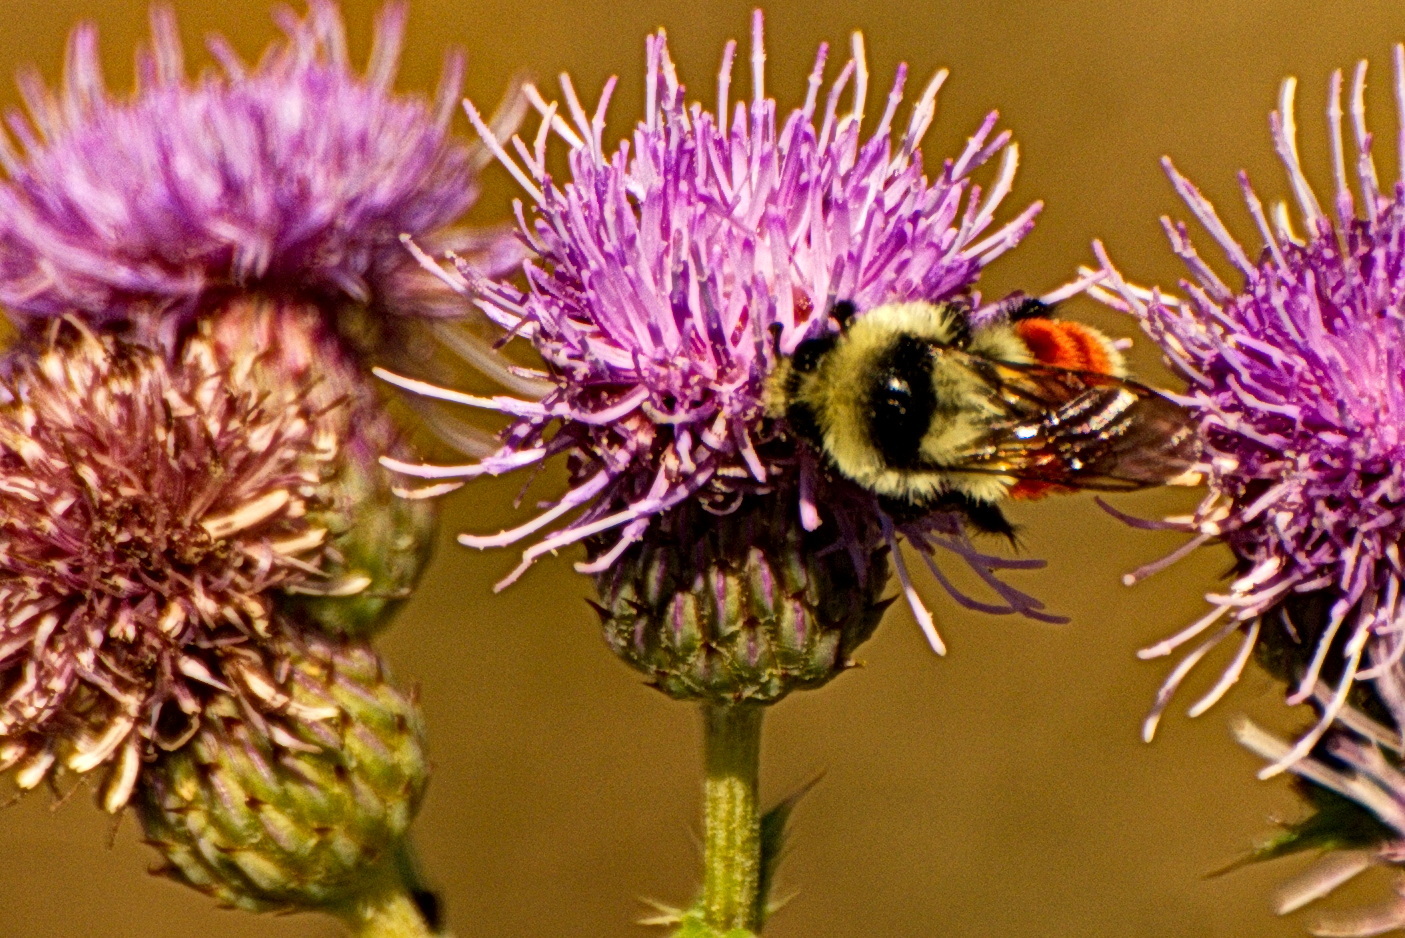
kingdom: Animalia
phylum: Arthropoda
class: Insecta
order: Hymenoptera
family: Apidae
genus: Bombus
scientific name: Bombus huntii
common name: Hunt bumble bee
